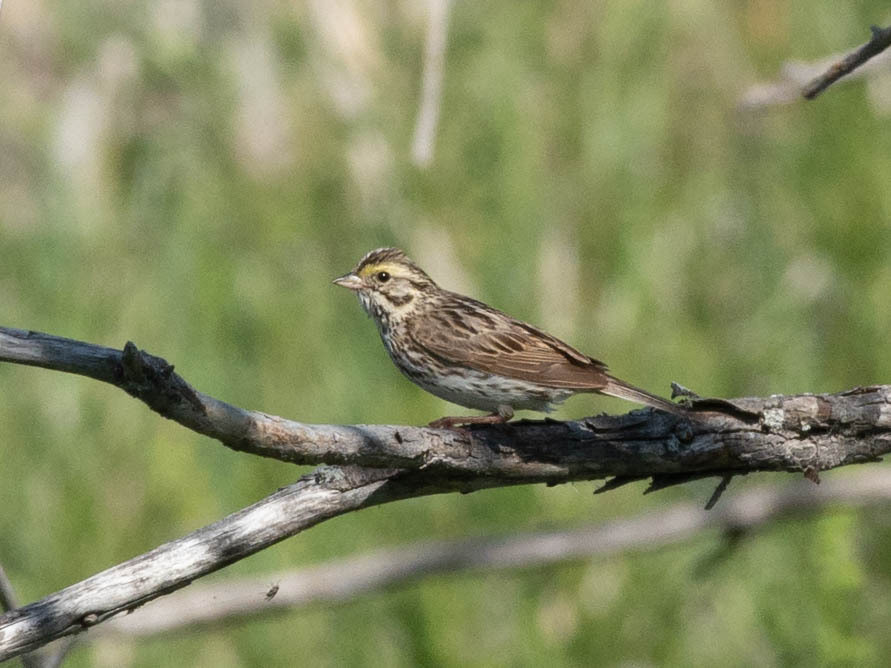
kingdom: Animalia
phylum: Chordata
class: Aves
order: Passeriformes
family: Passerellidae
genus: Passerculus
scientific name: Passerculus sandwichensis
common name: Savannah sparrow
